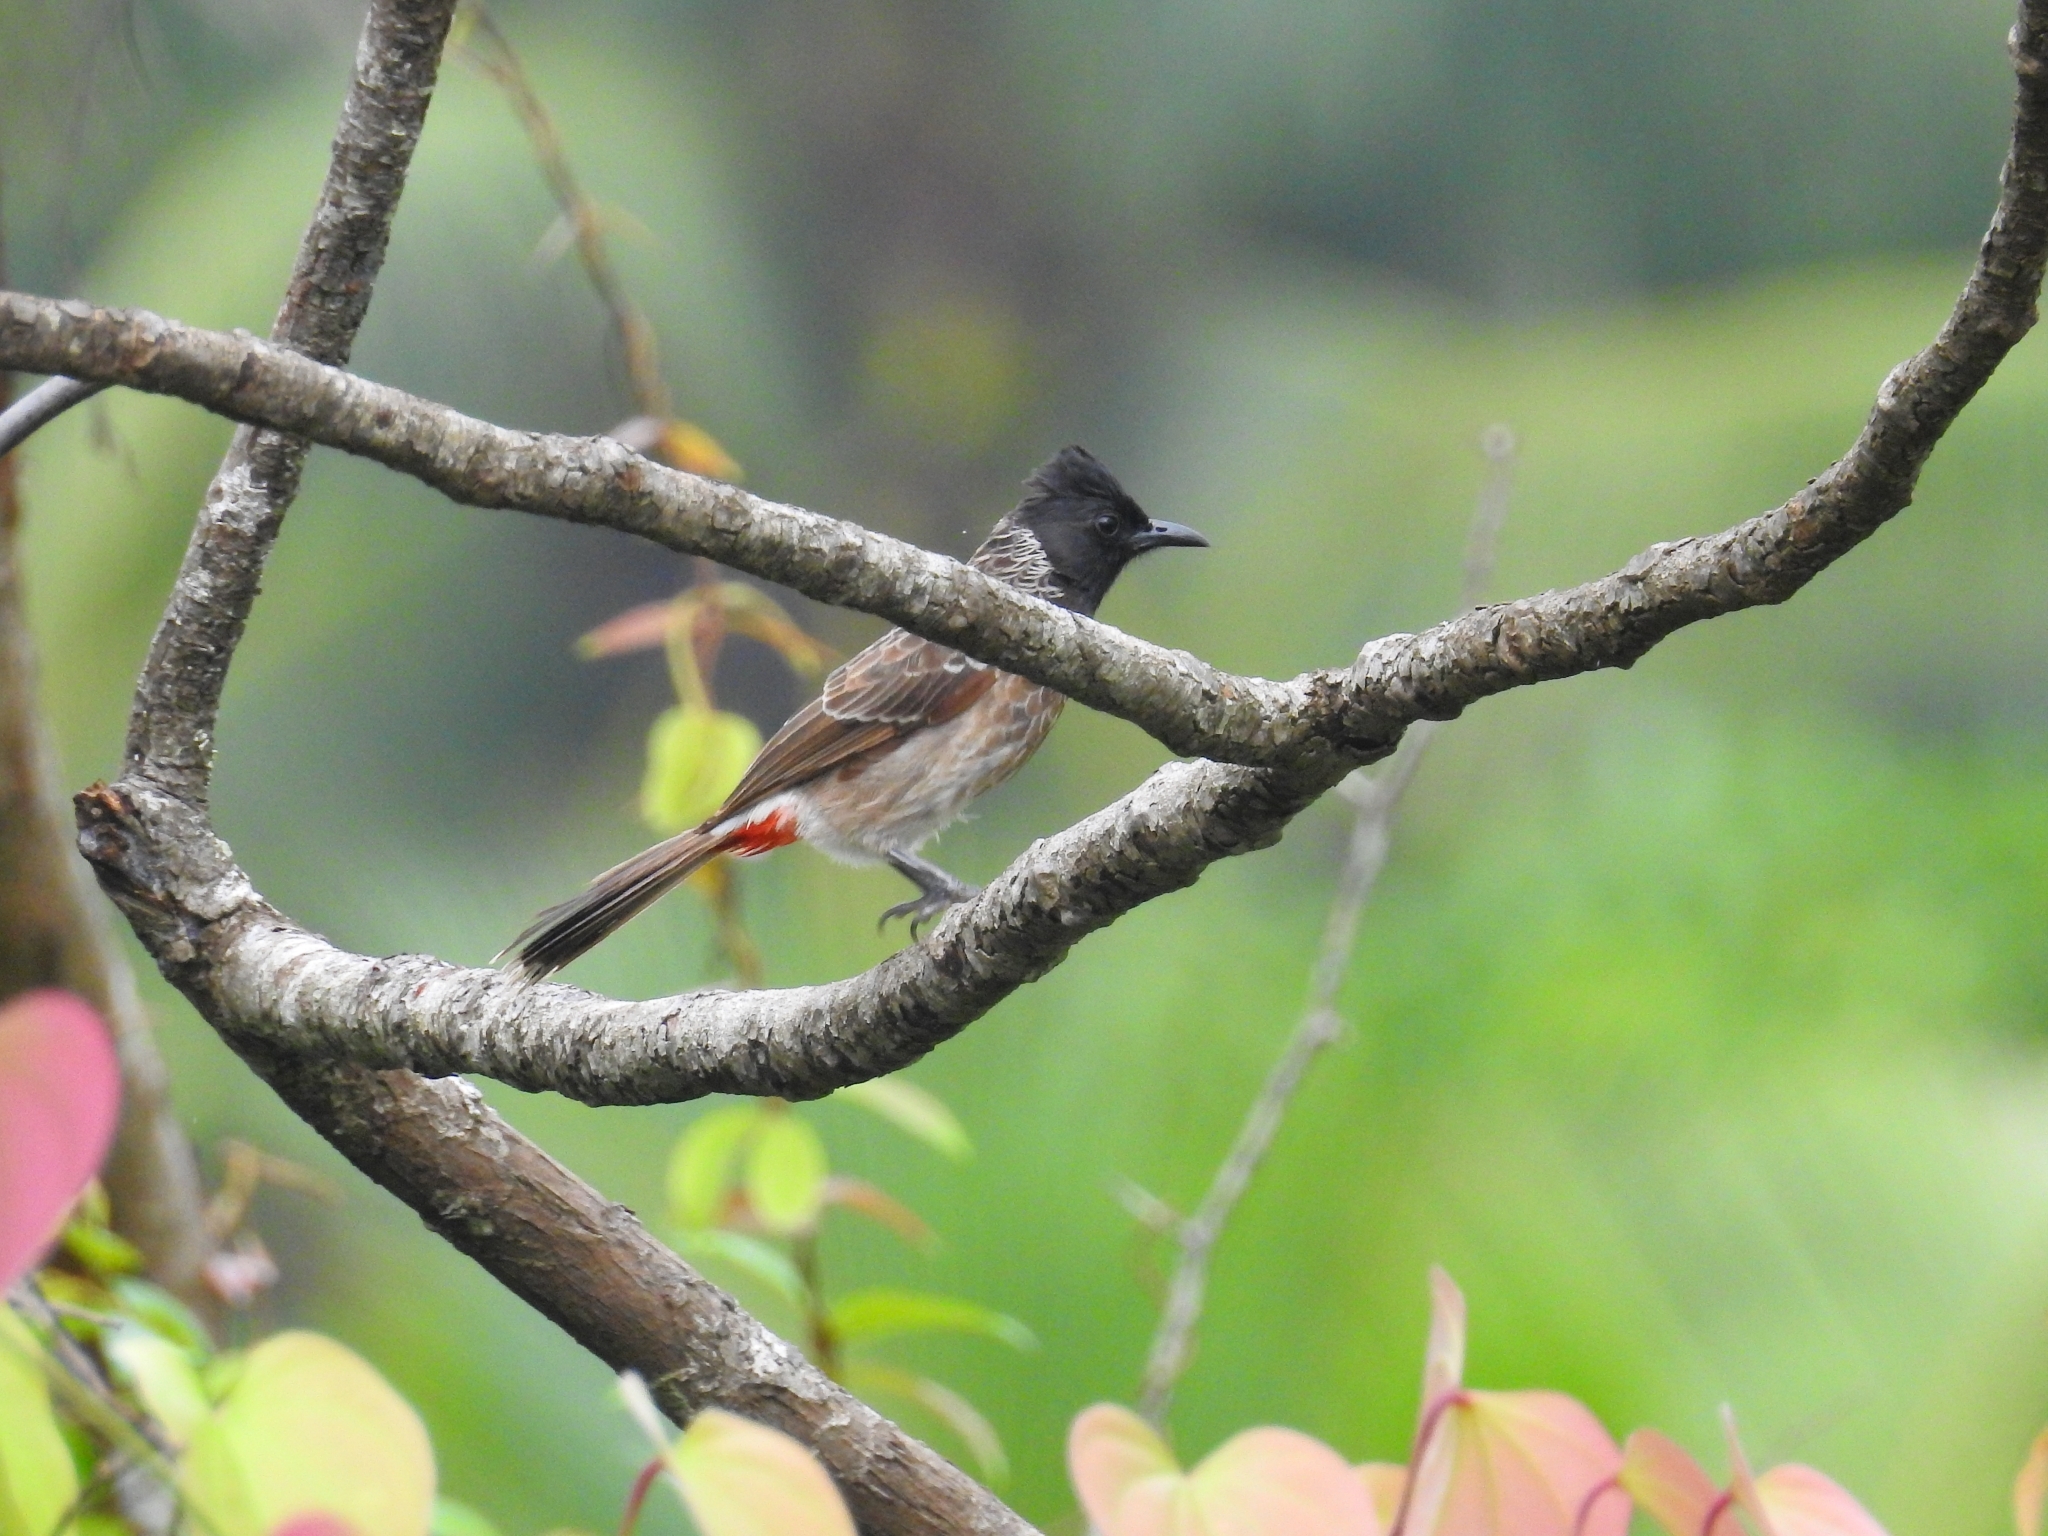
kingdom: Animalia
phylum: Chordata
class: Aves
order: Passeriformes
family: Pycnonotidae
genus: Pycnonotus
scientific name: Pycnonotus cafer
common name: Red-vented bulbul
